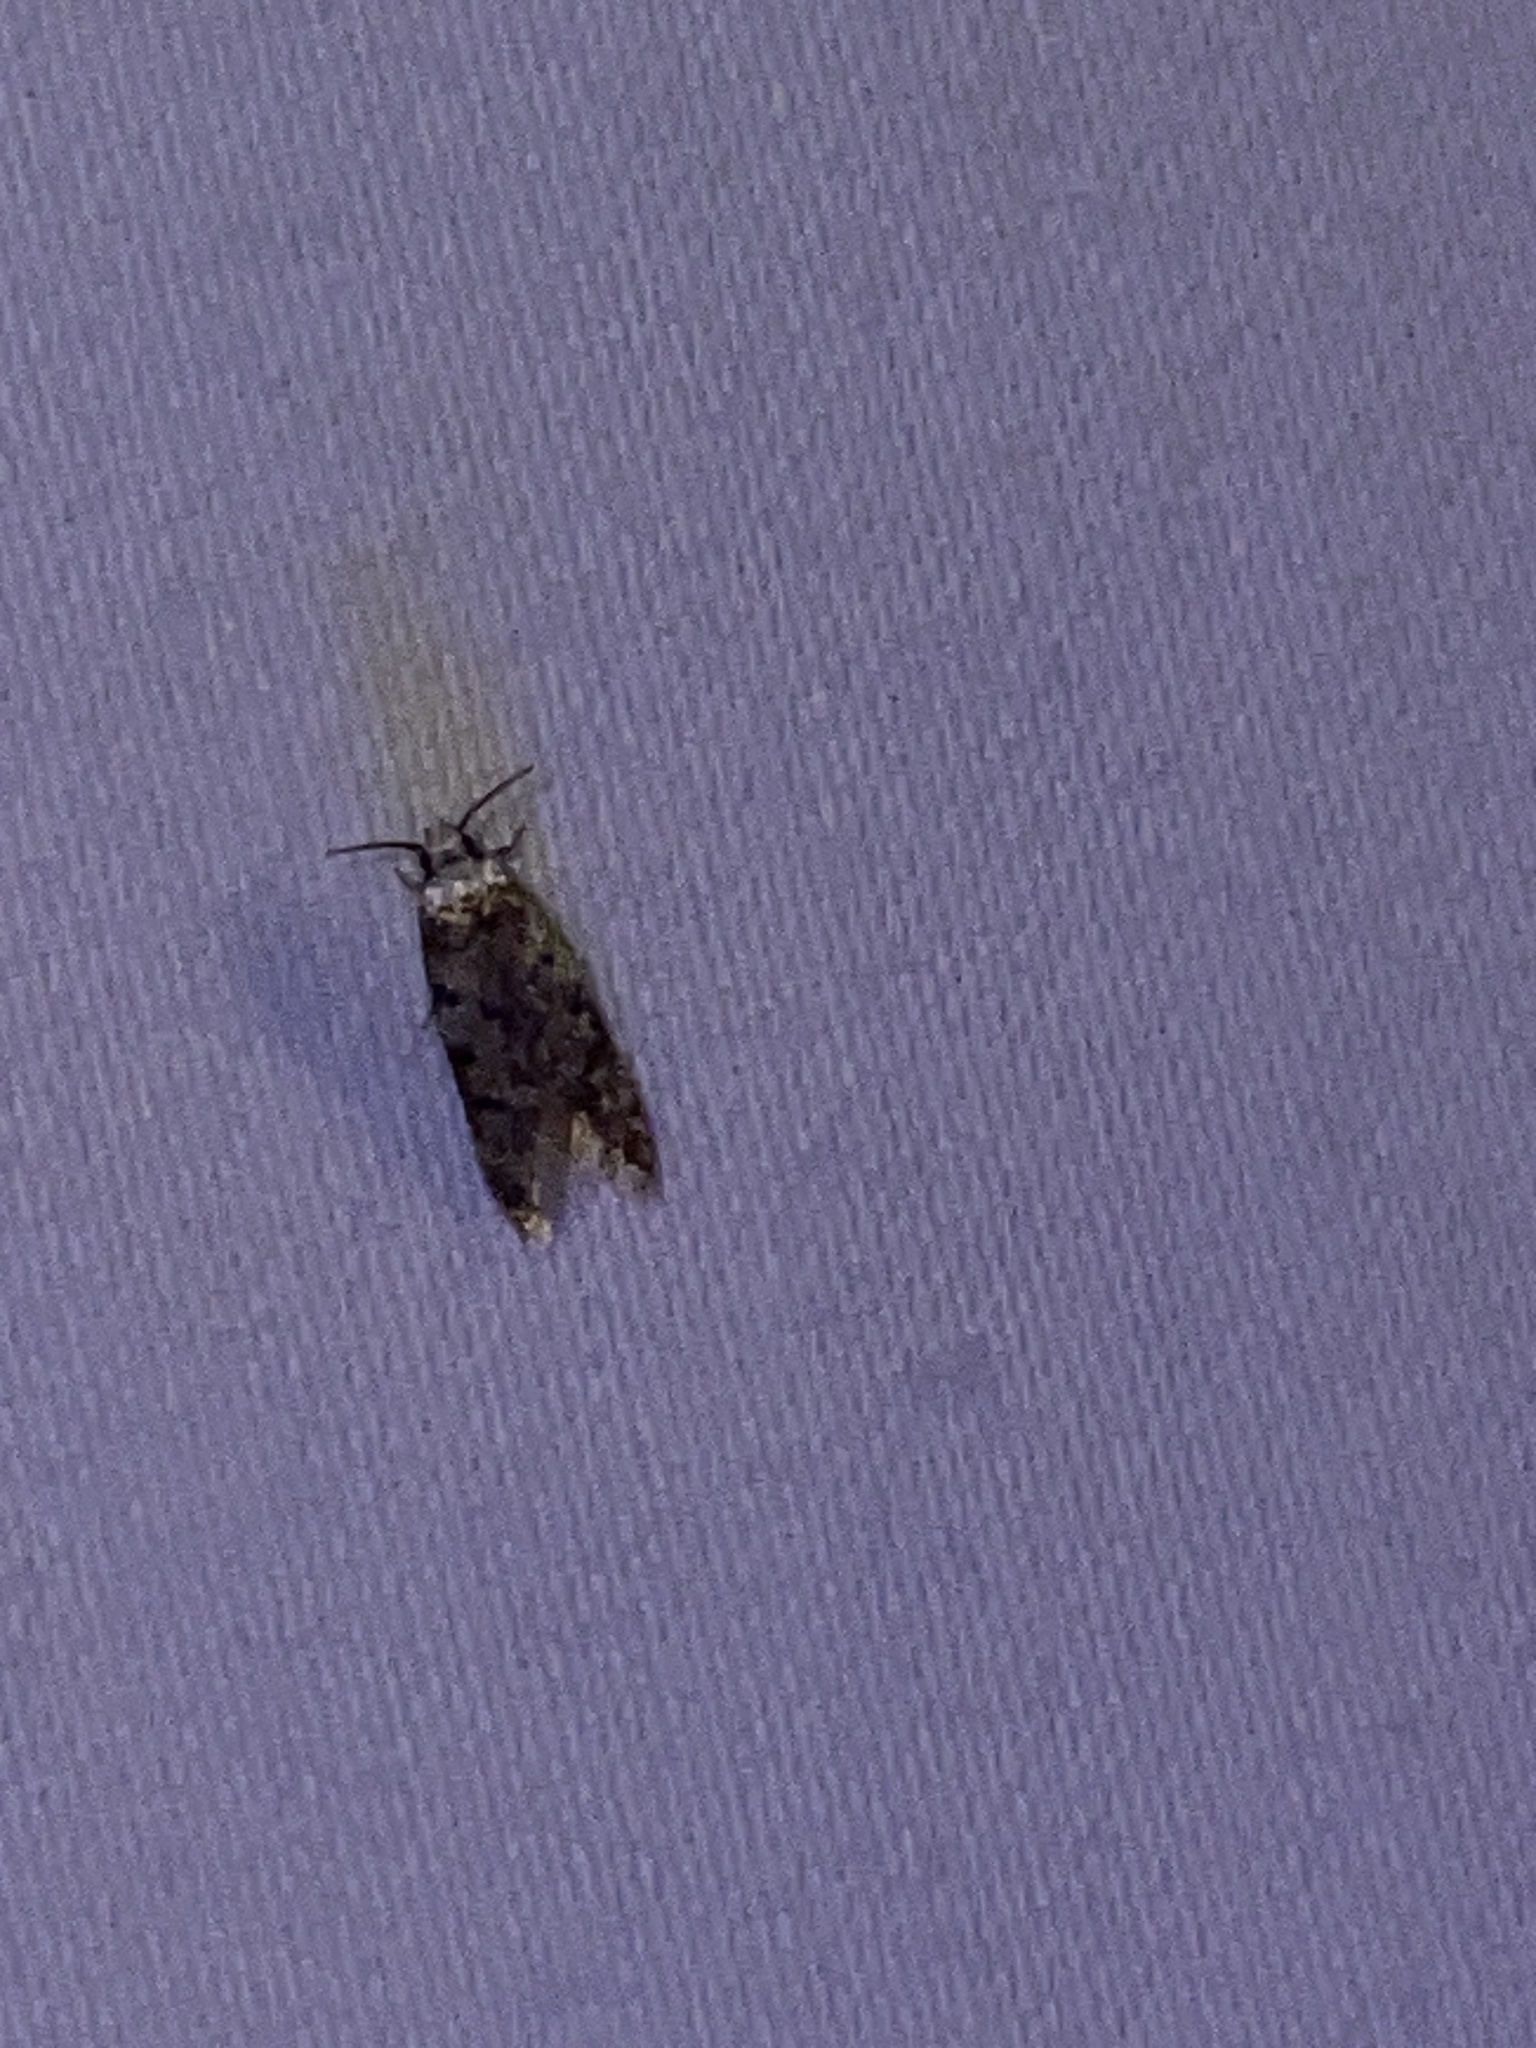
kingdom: Animalia
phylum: Arthropoda
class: Insecta
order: Lepidoptera
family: Oecophoridae
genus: Endrosis
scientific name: Endrosis sarcitrella
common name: White-shouldered house moth
